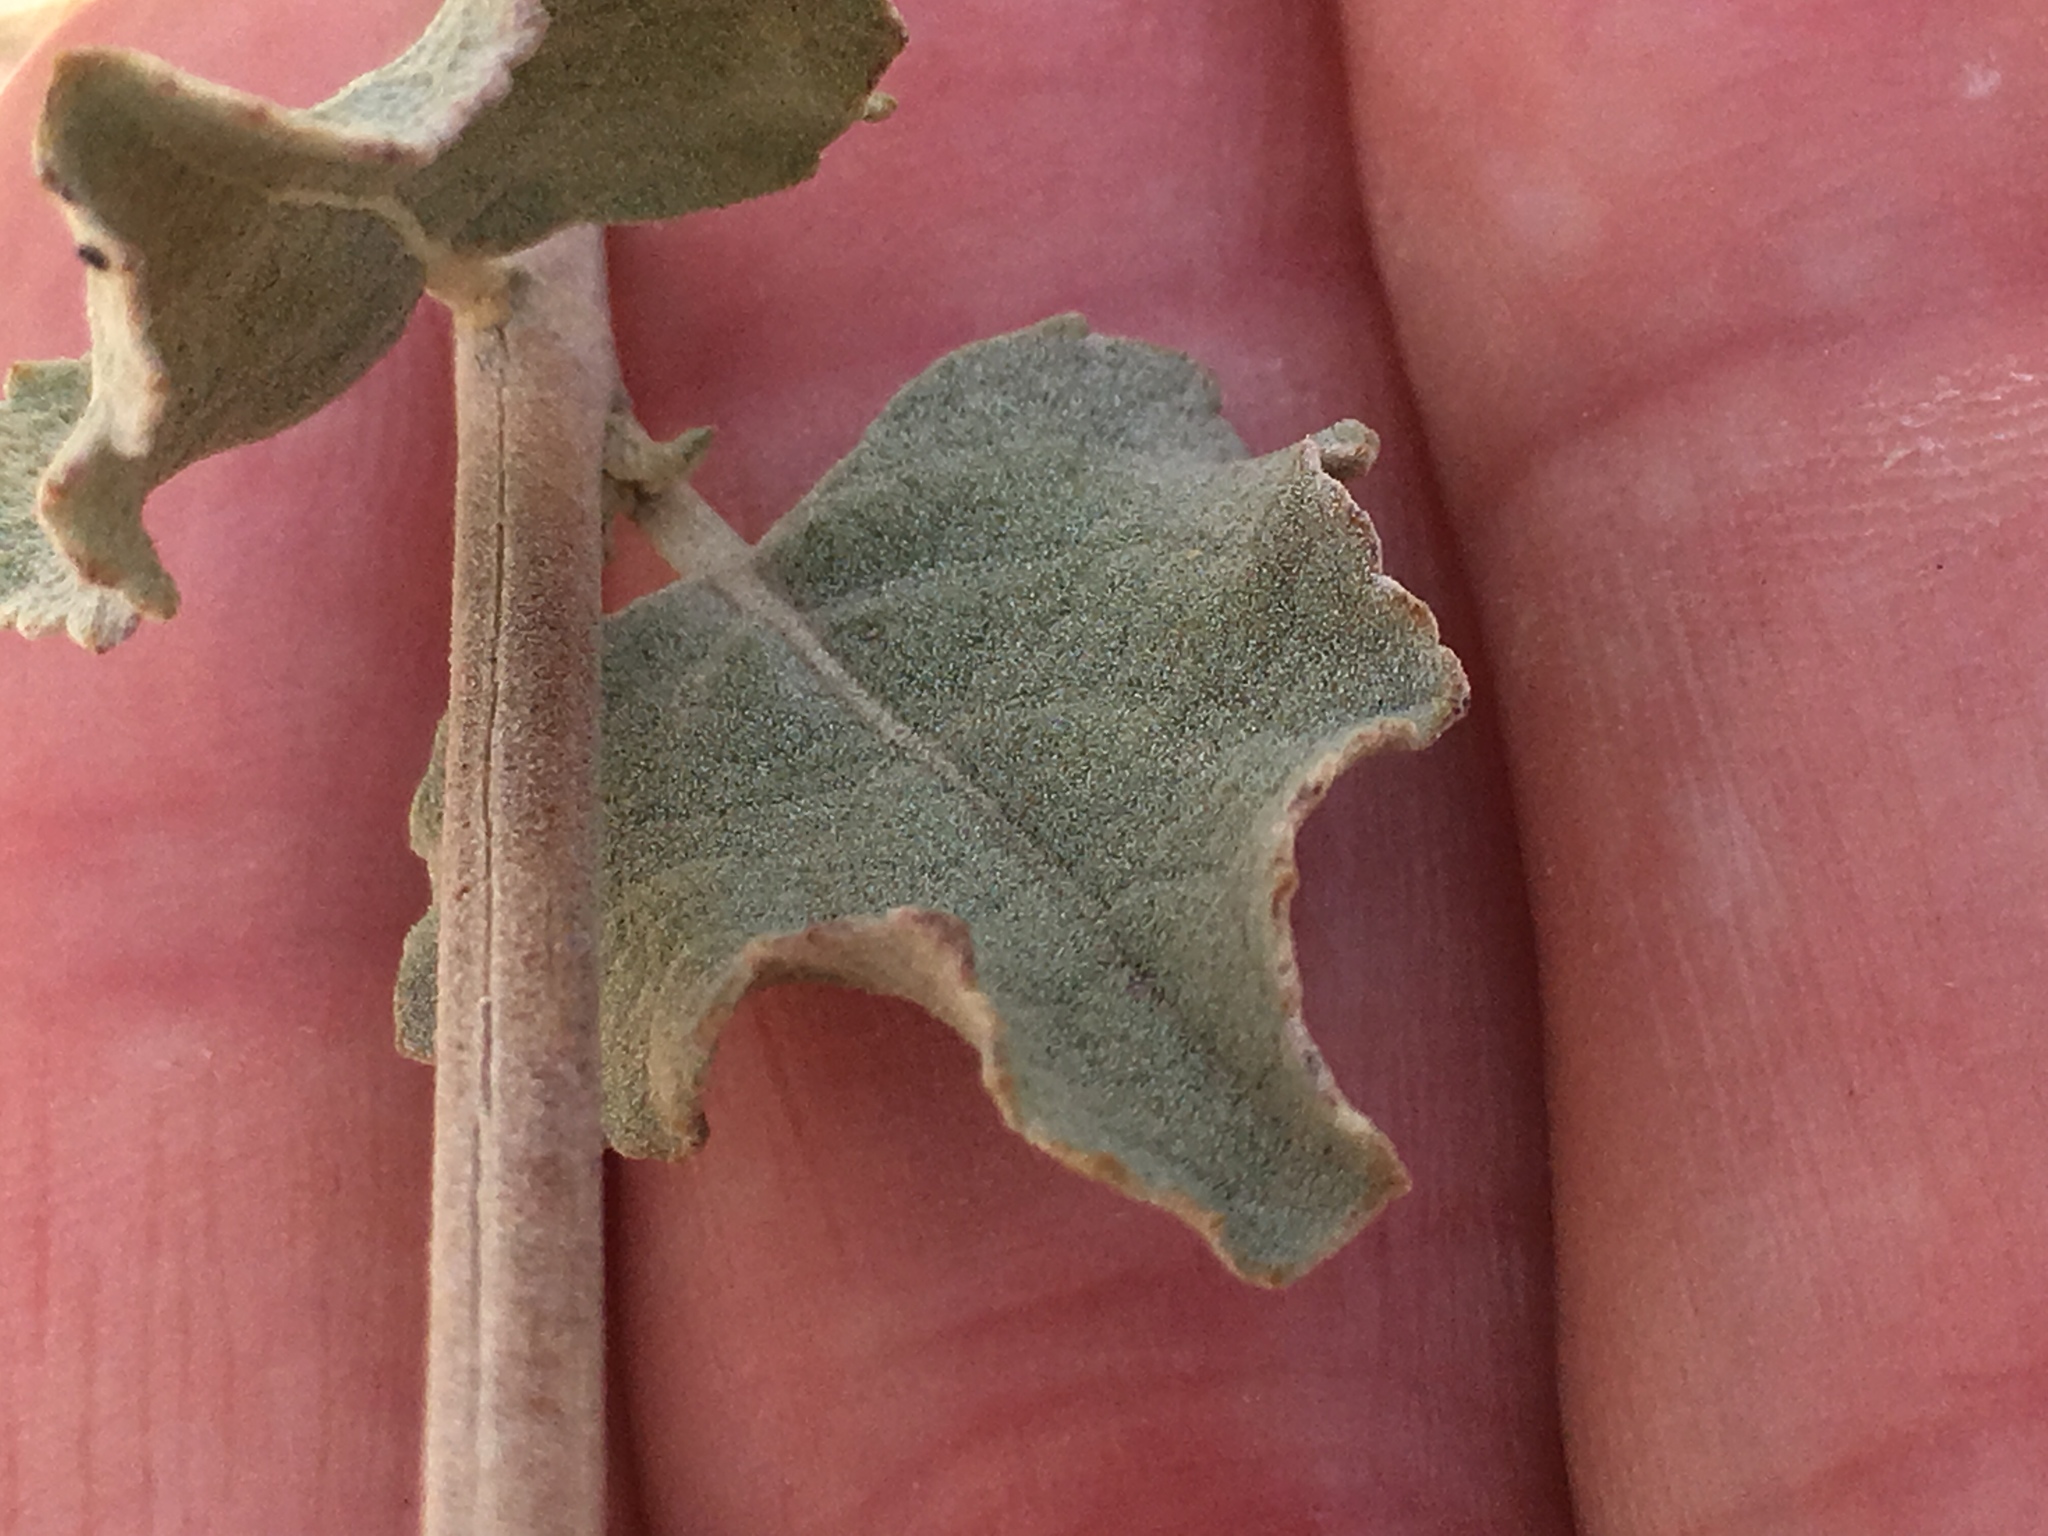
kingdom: Plantae
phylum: Tracheophyta
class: Magnoliopsida
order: Lamiales
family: Lamiaceae
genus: Condea
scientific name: Condea emoryi
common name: Chia
